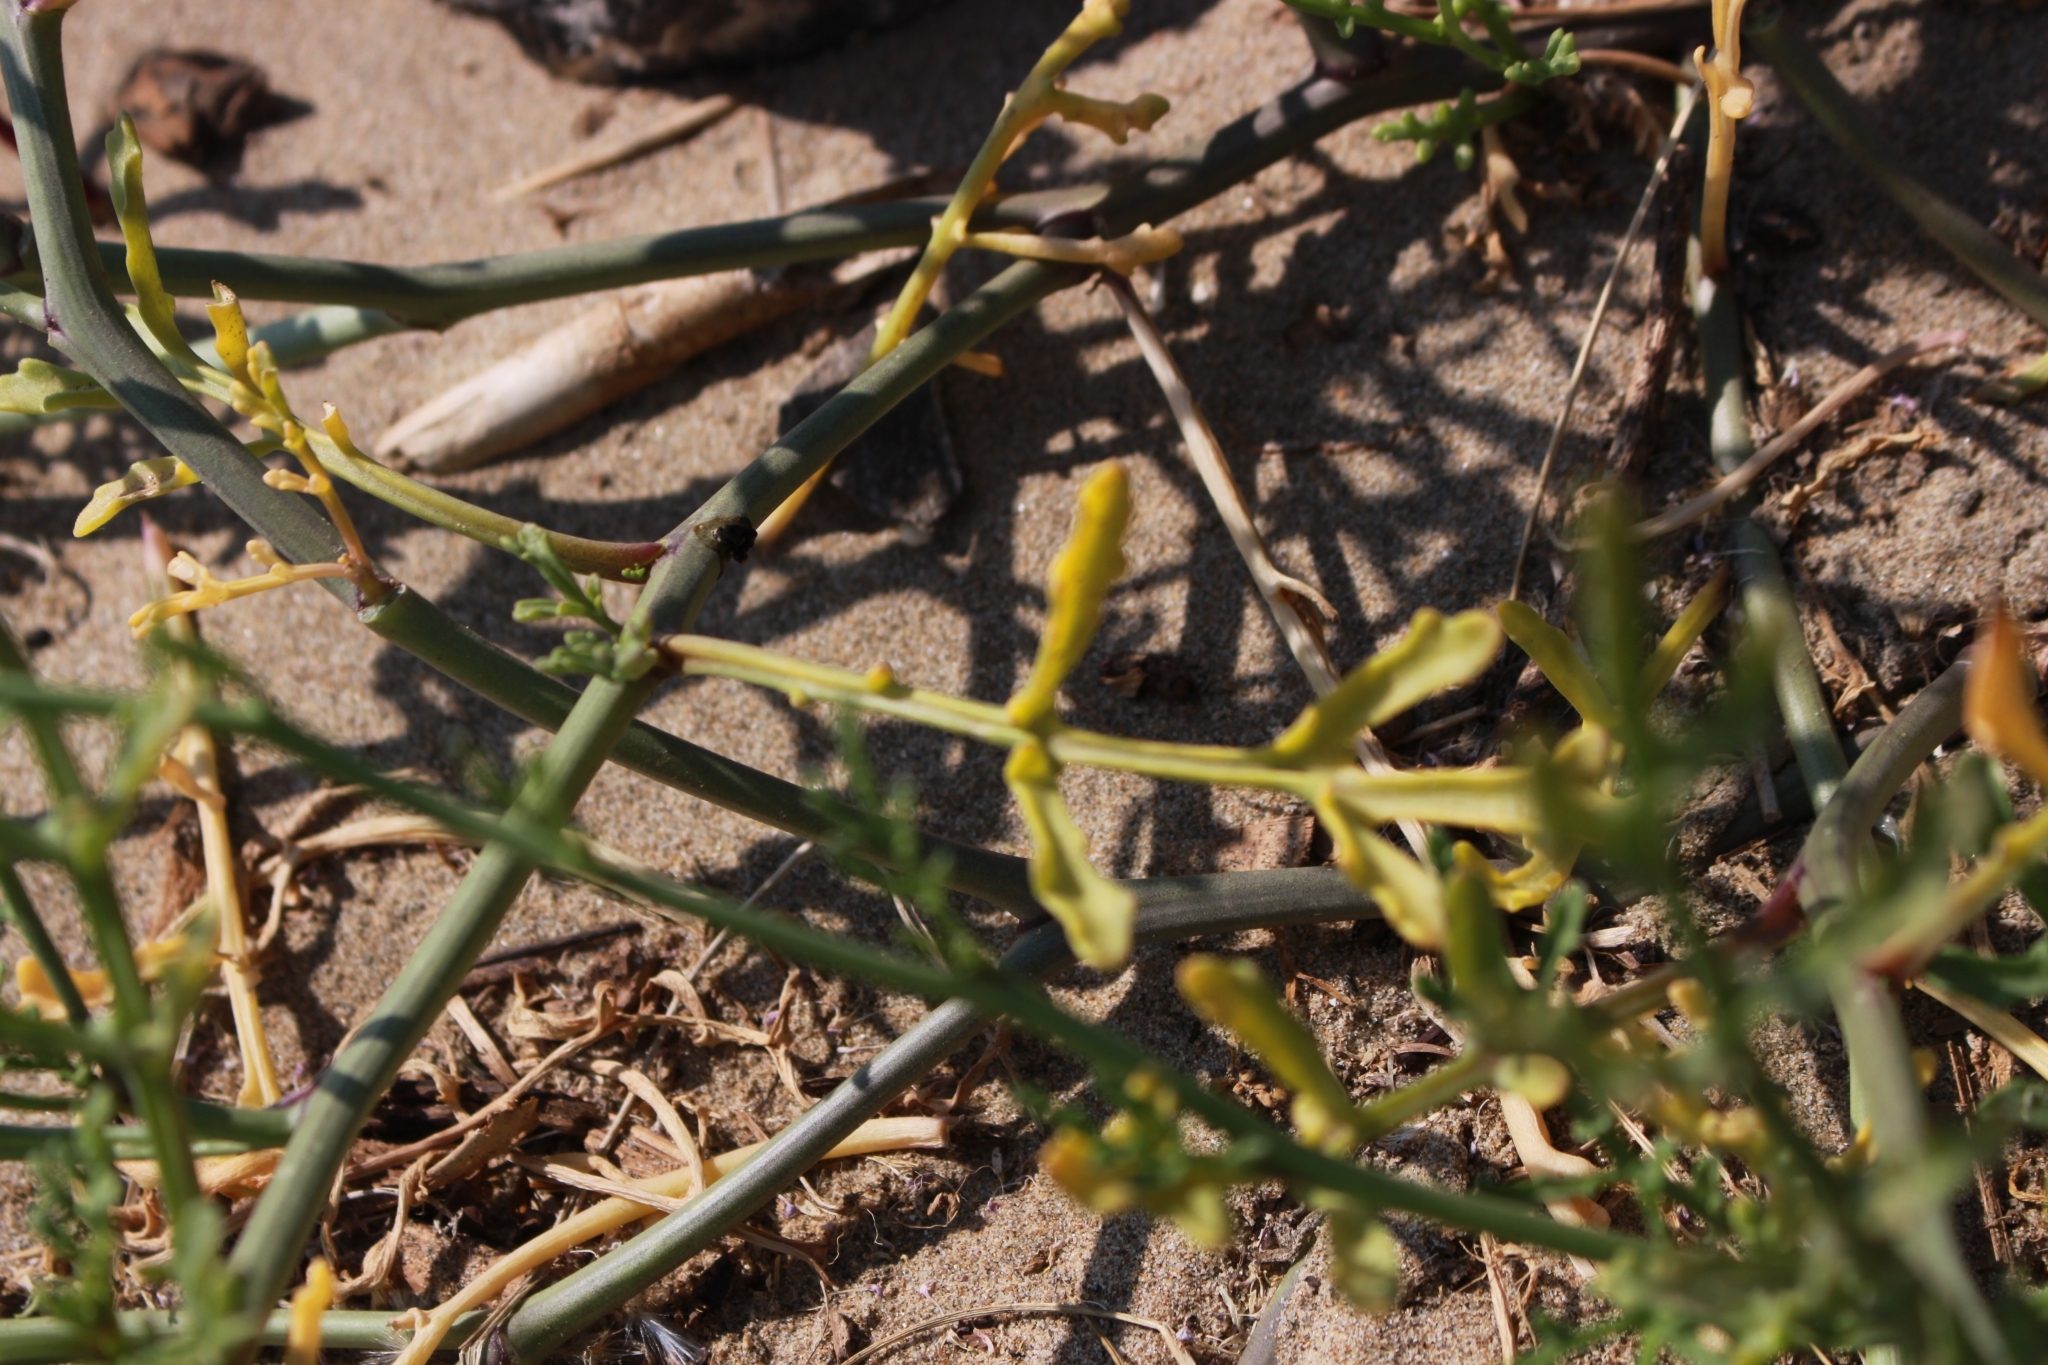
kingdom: Plantae
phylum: Tracheophyta
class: Magnoliopsida
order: Brassicales
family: Brassicaceae
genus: Cakile
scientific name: Cakile maritima
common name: Sea rocket
